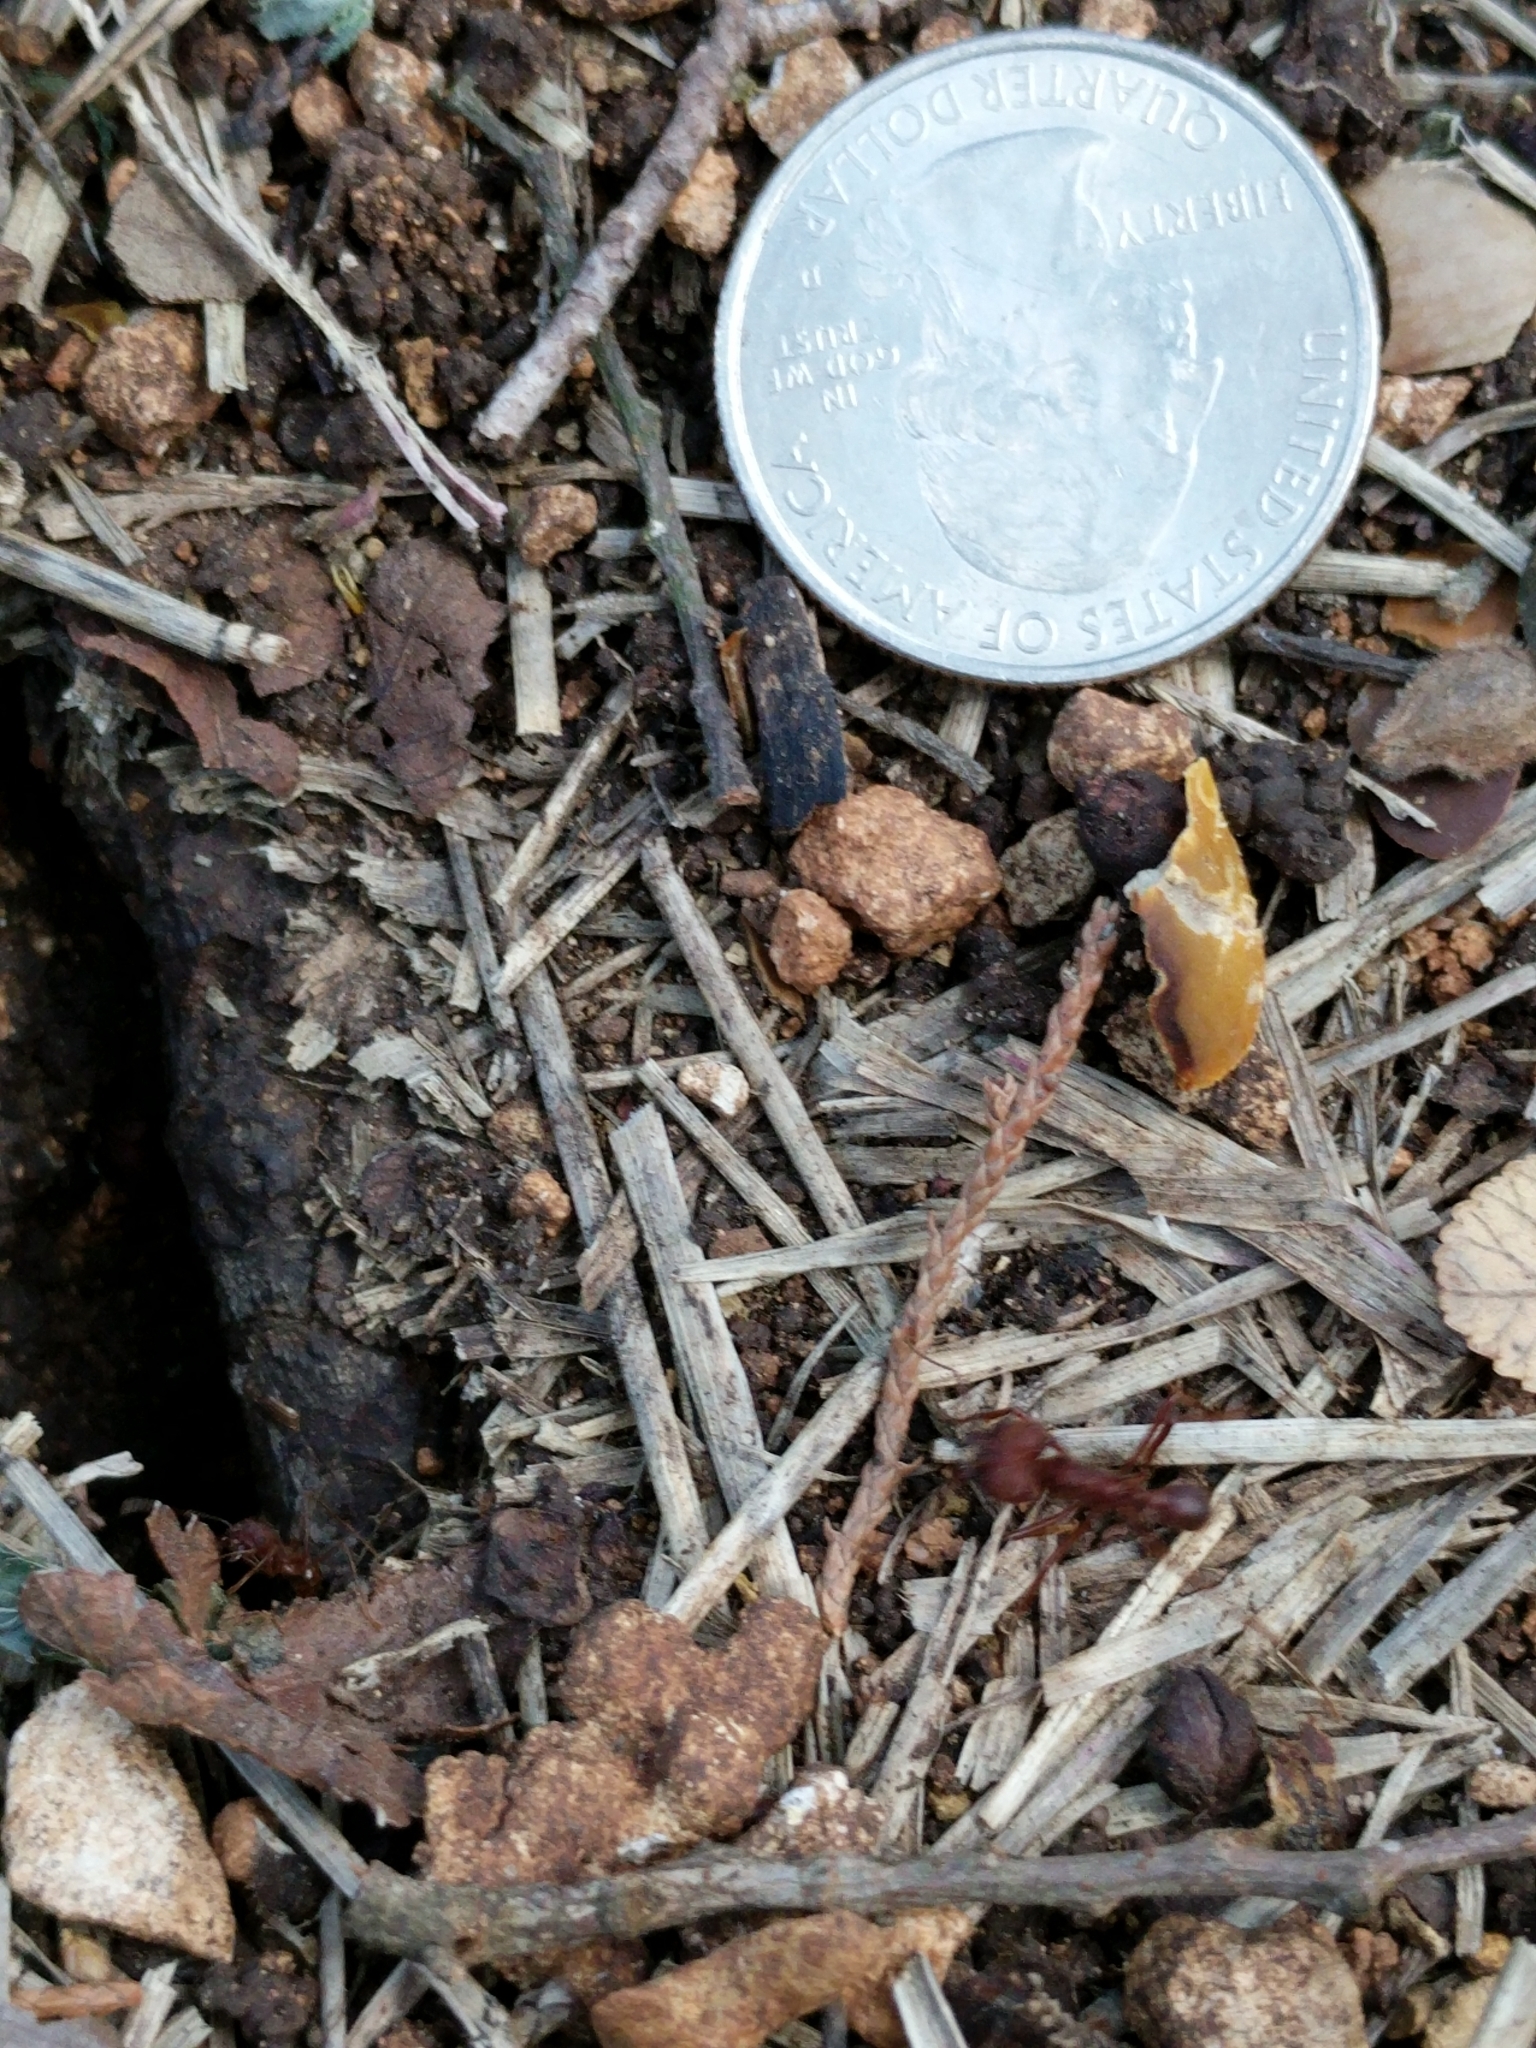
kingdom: Animalia
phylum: Arthropoda
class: Insecta
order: Hymenoptera
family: Formicidae
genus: Atta
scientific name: Atta texana
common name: Texas leafcutting ant
